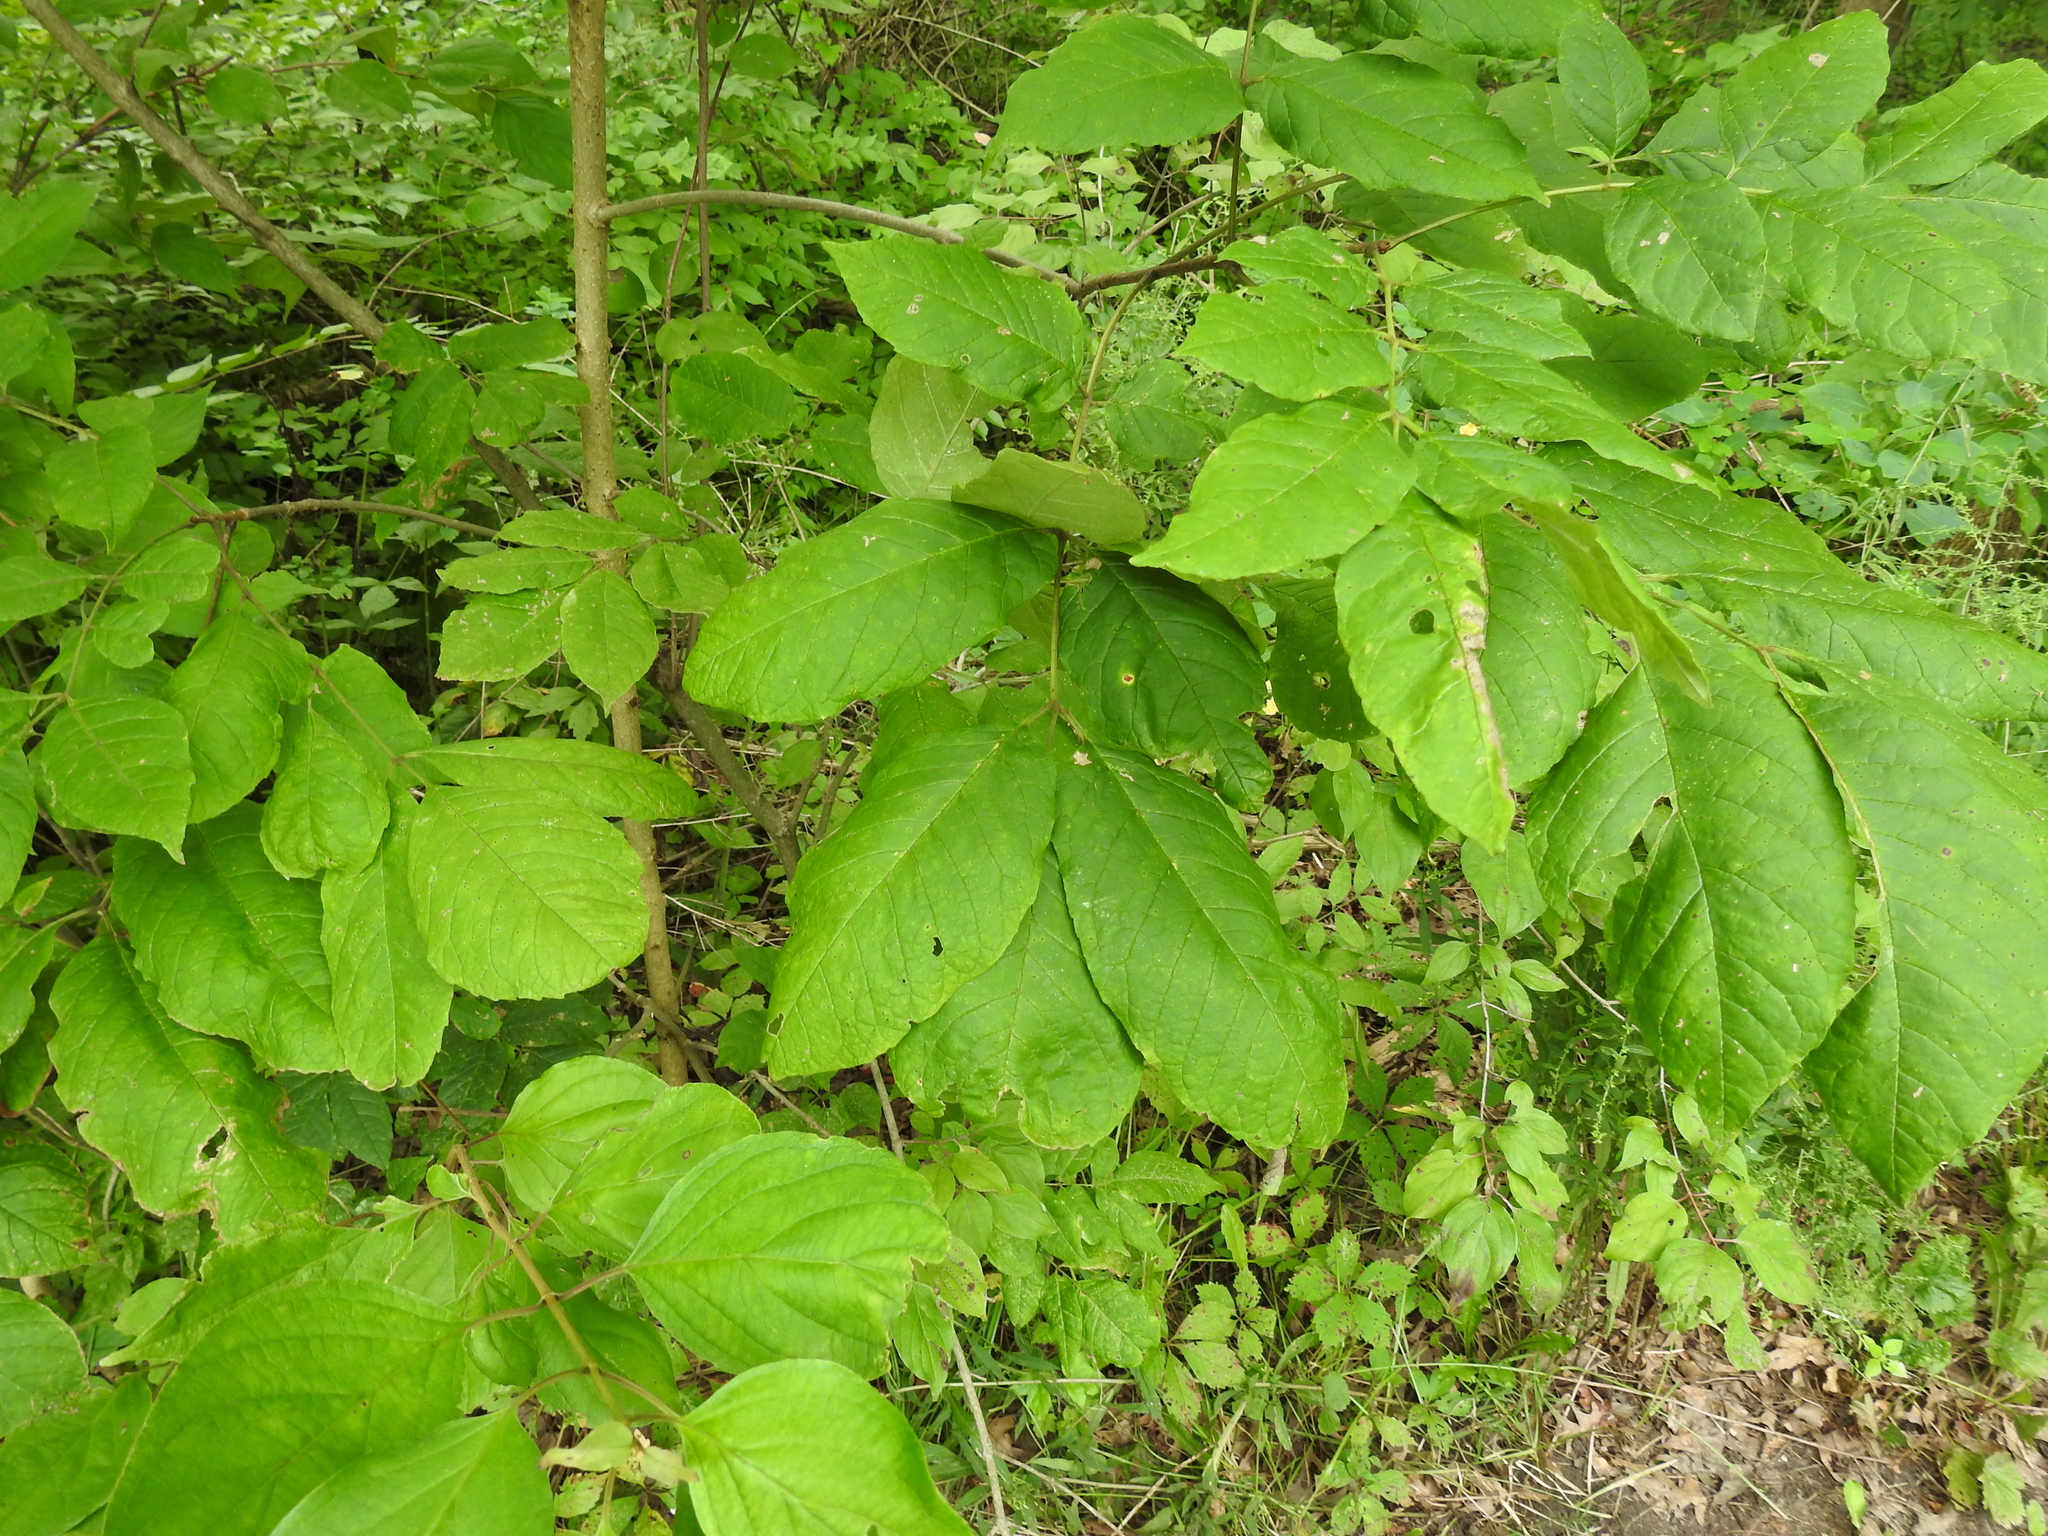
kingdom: Plantae
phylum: Tracheophyta
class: Magnoliopsida
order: Lamiales
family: Oleaceae
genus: Fraxinus
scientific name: Fraxinus americana
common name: White ash
